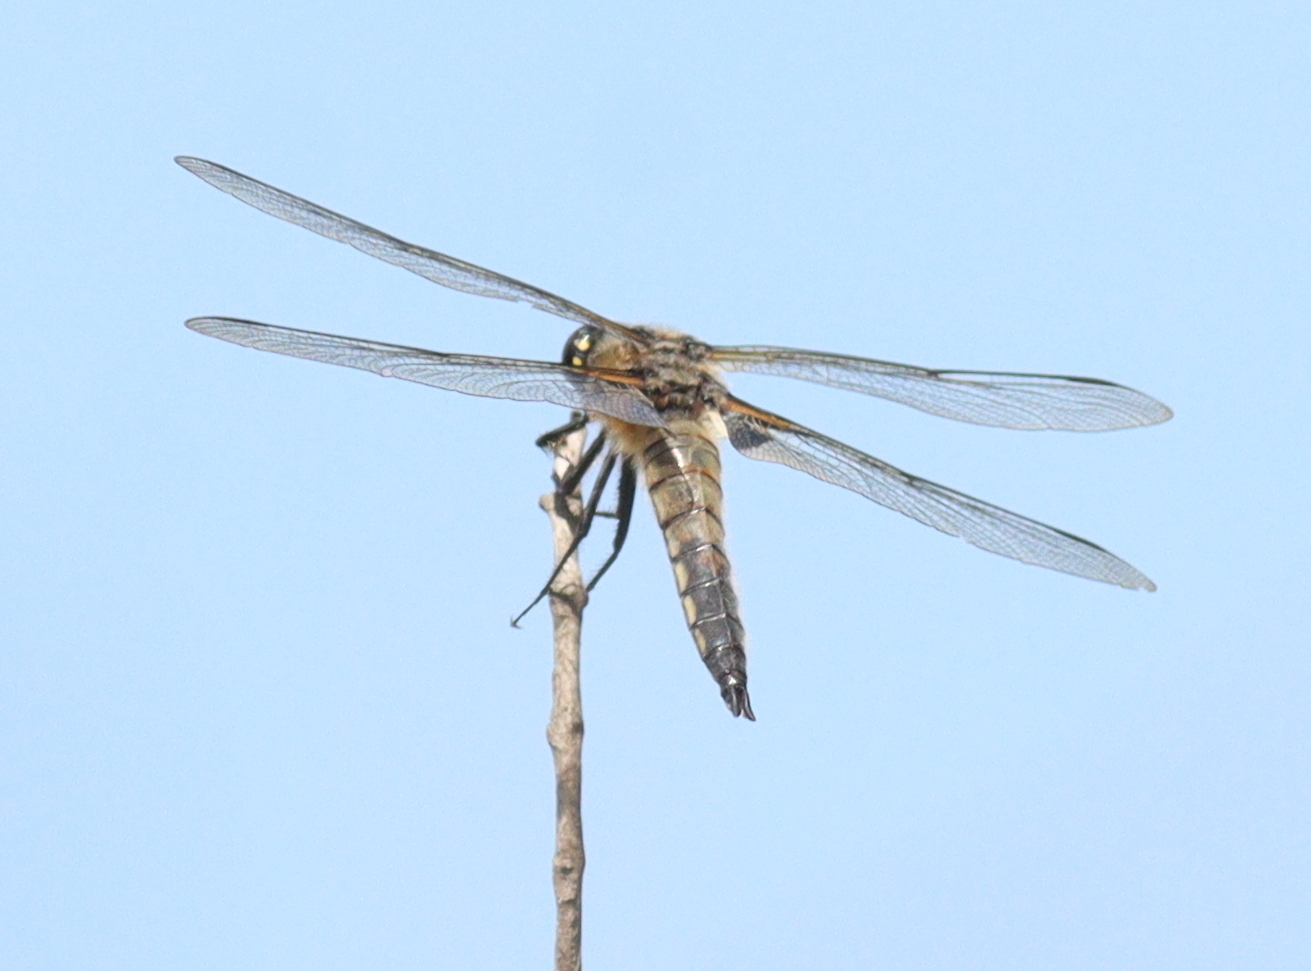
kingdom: Animalia
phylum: Arthropoda
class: Insecta
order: Odonata
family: Libellulidae
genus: Libellula
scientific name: Libellula quadrimaculata
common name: Four-spotted chaser
